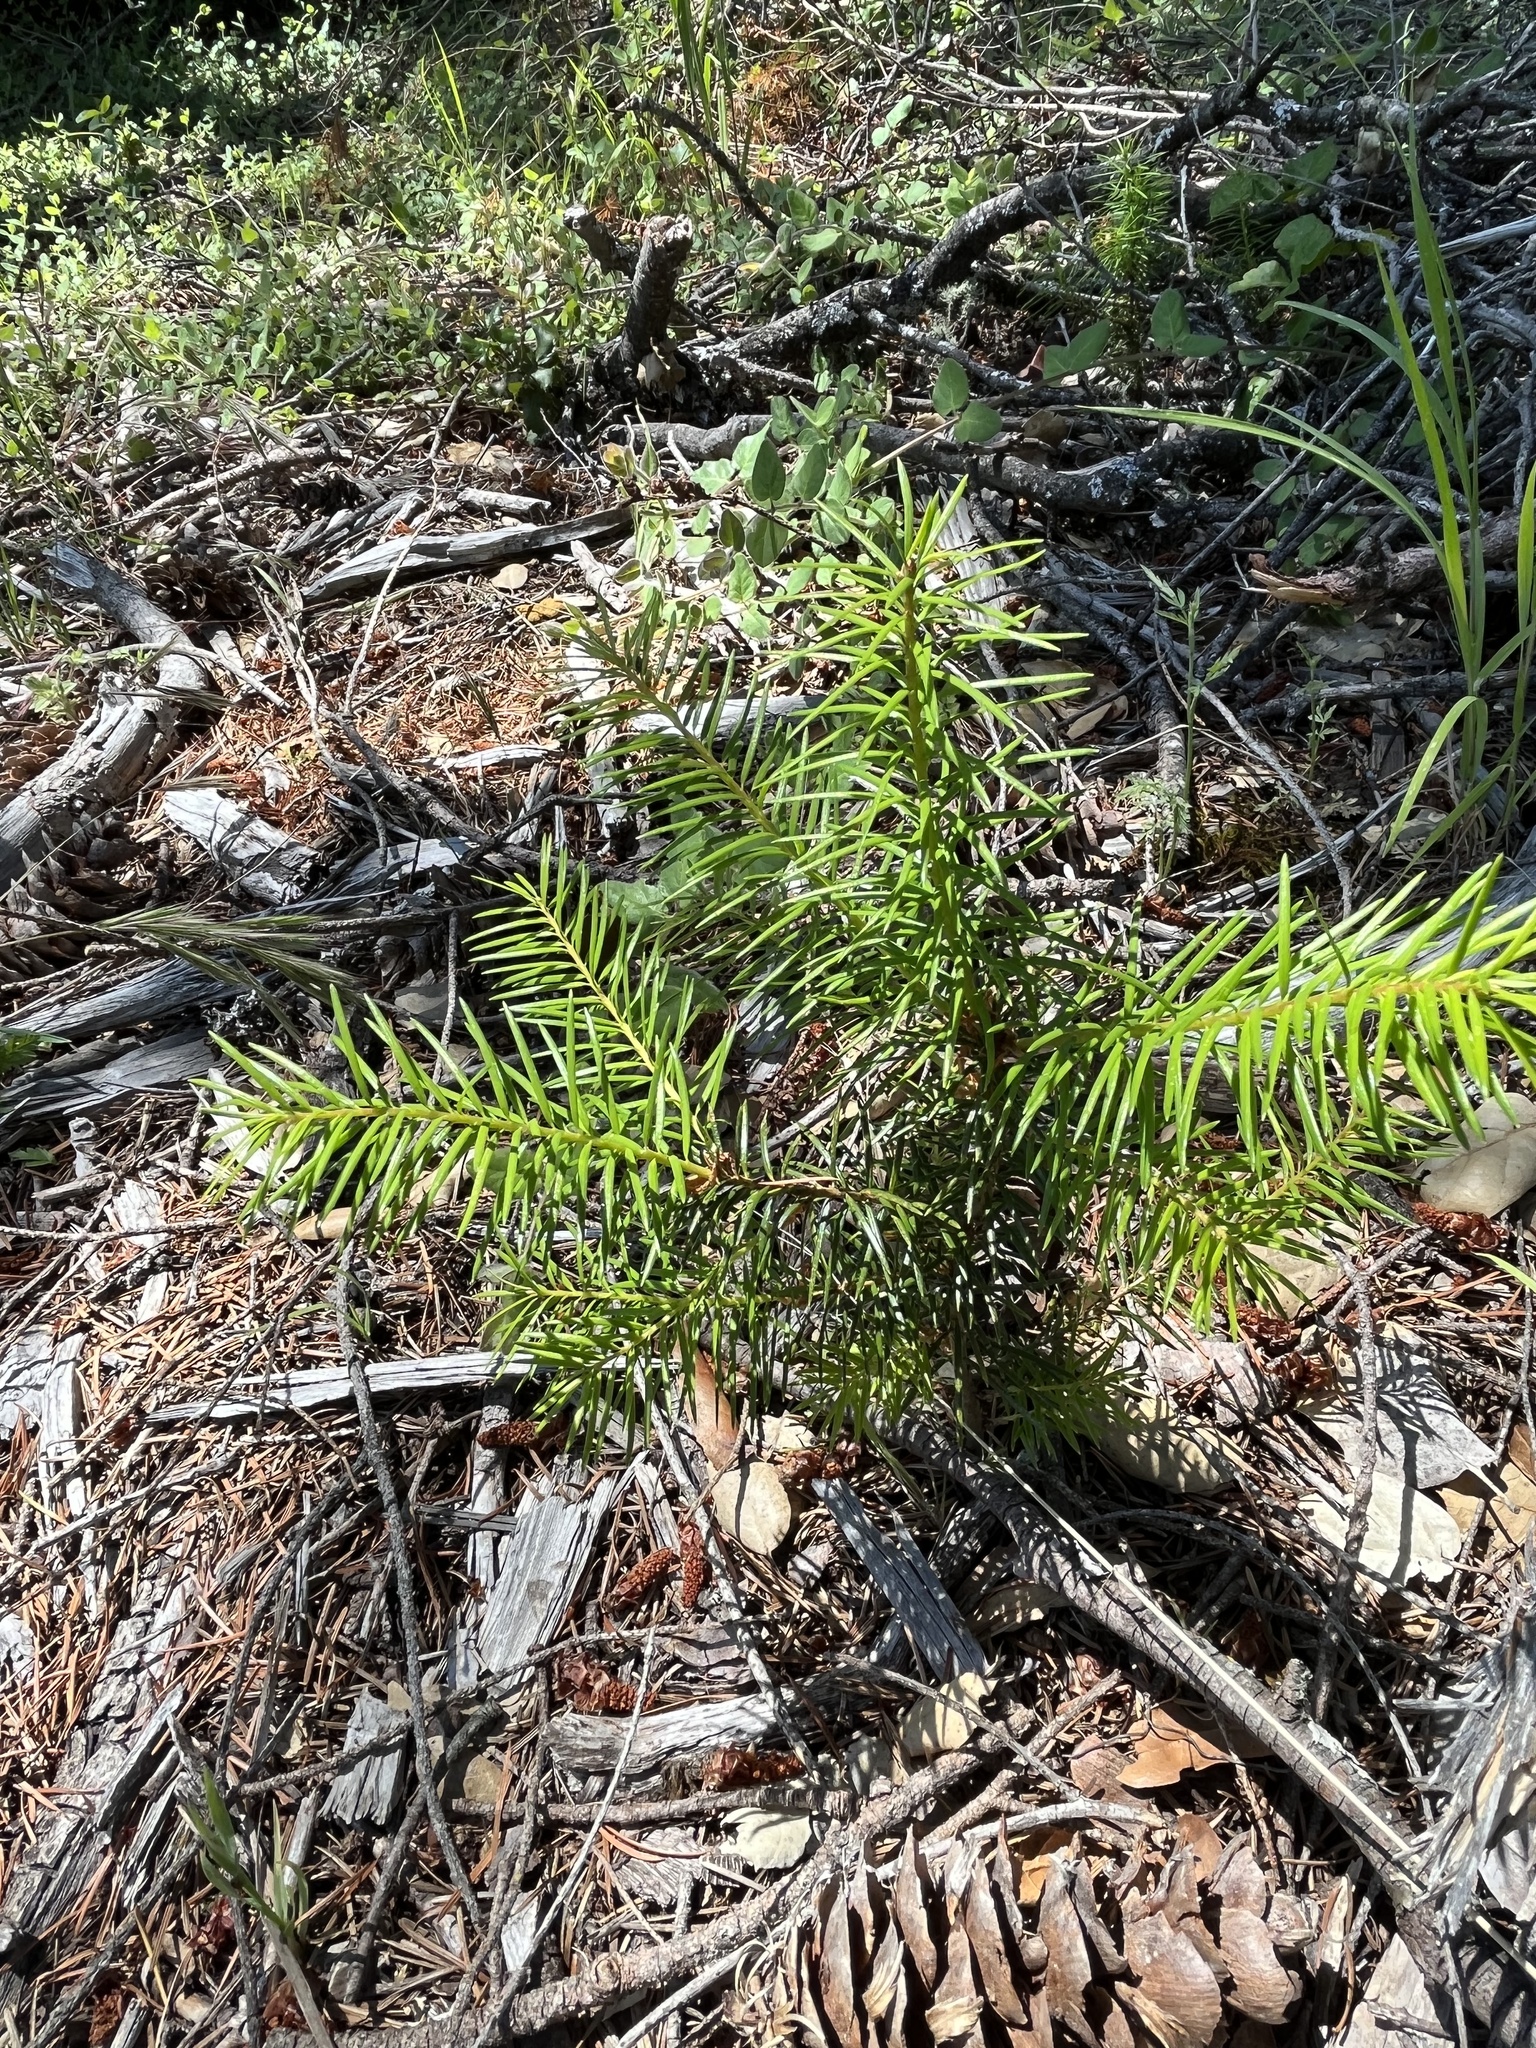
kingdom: Plantae
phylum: Tracheophyta
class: Pinopsida
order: Pinales
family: Pinaceae
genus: Pseudotsuga
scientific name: Pseudotsuga menziesii
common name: Douglas fir
